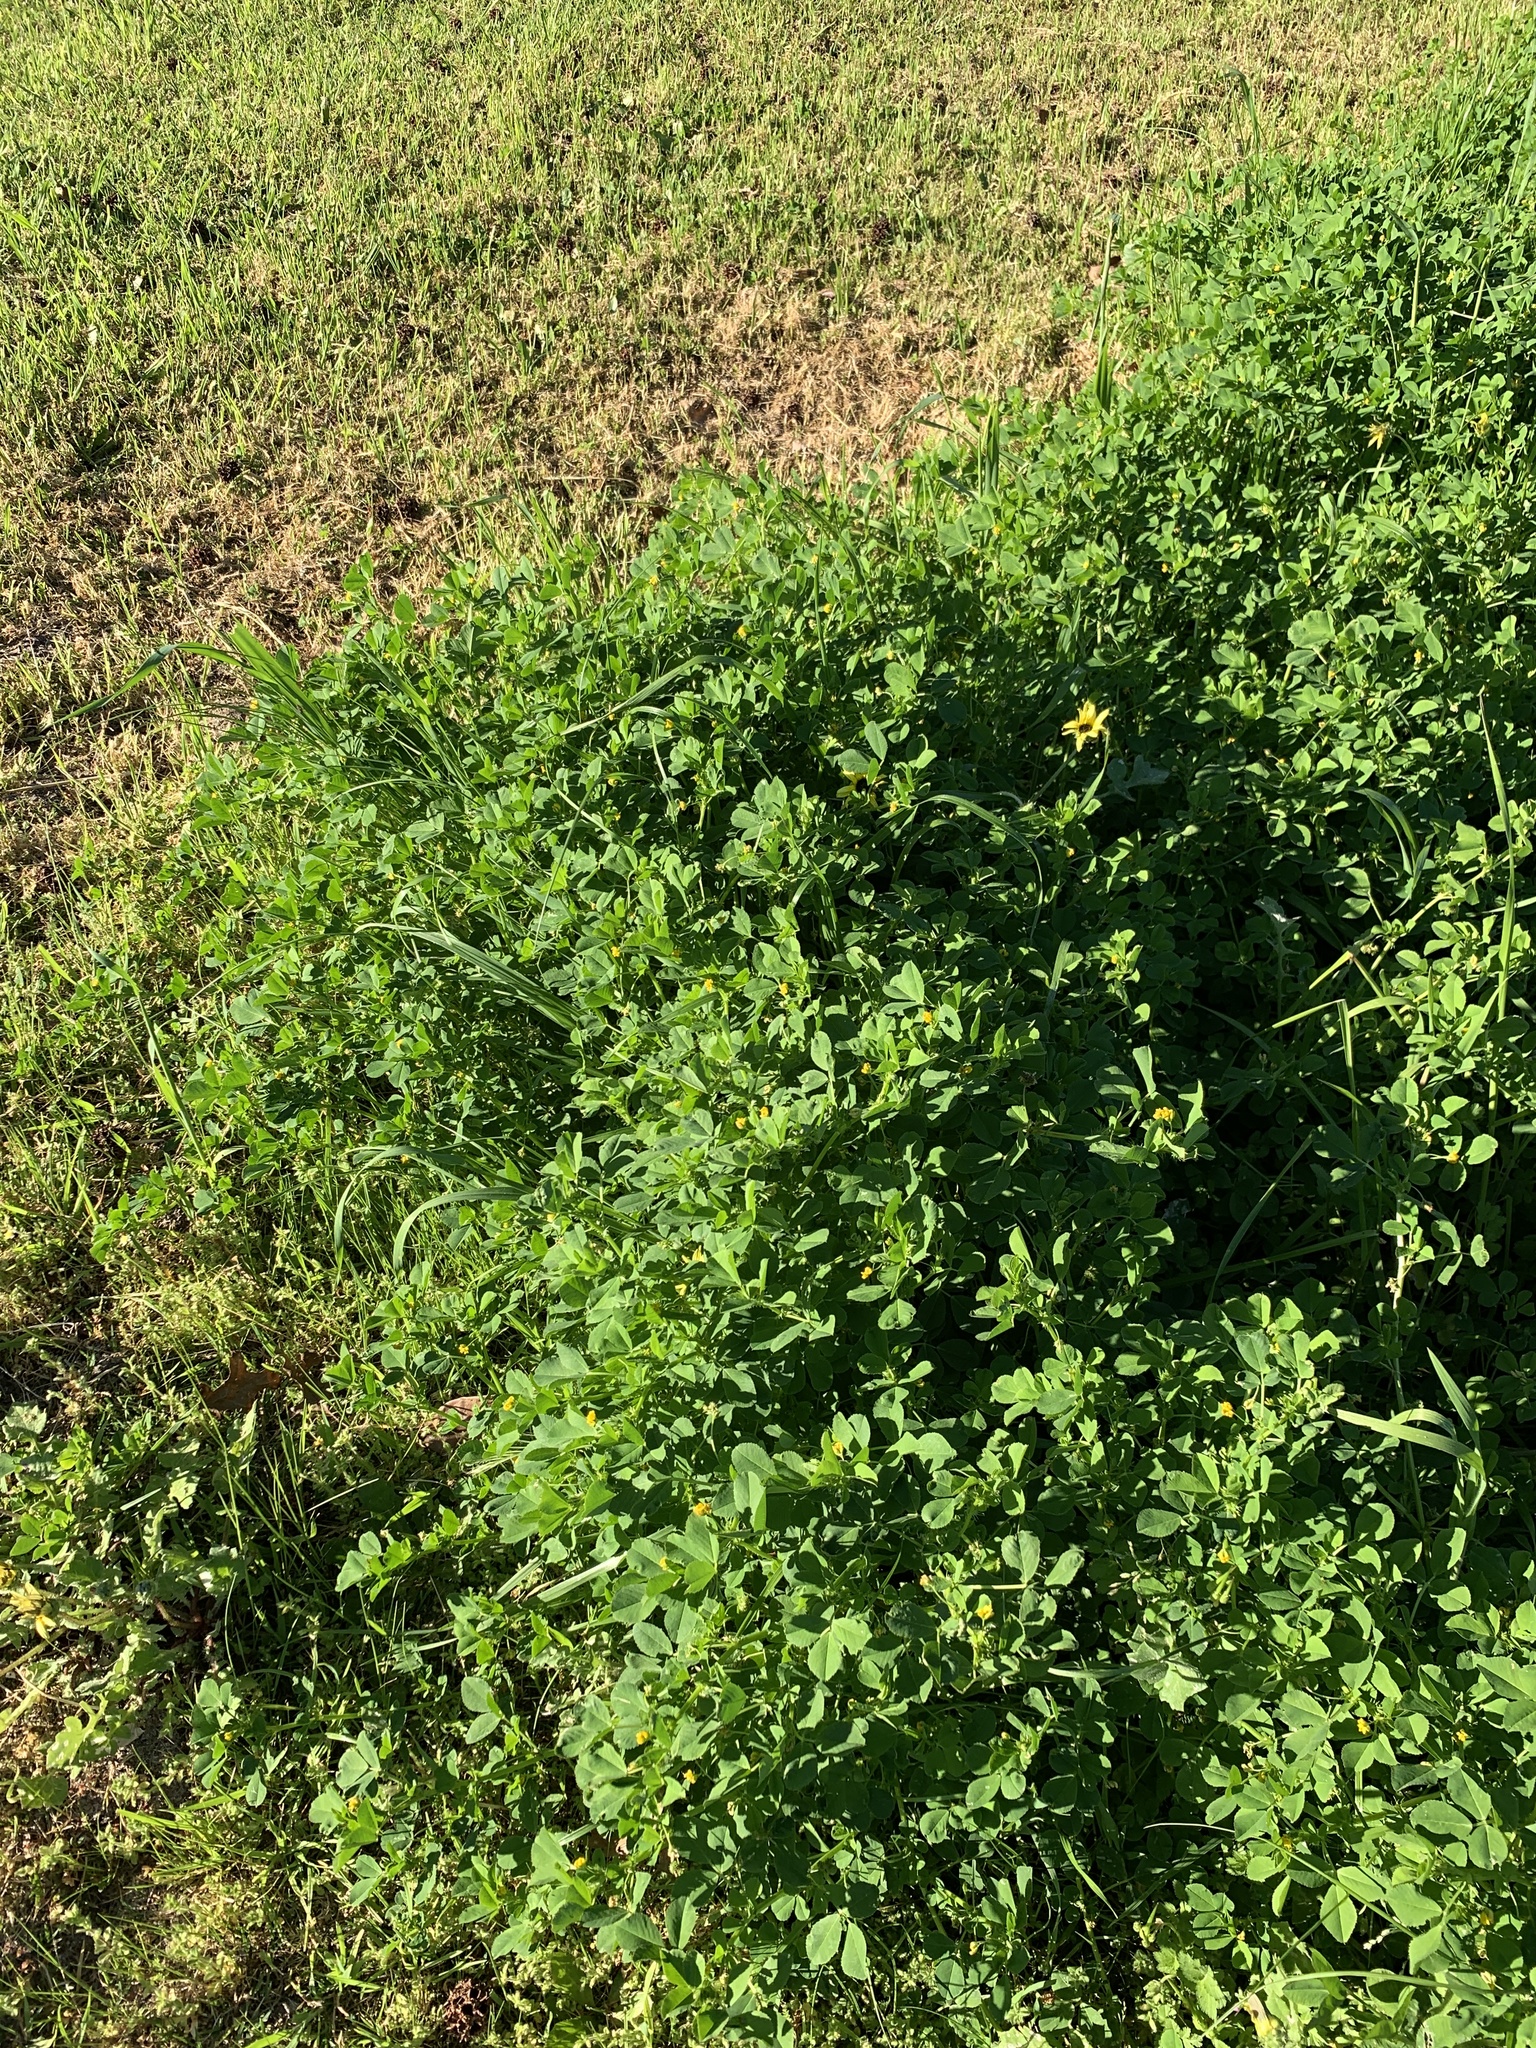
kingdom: Plantae
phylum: Tracheophyta
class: Magnoliopsida
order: Fabales
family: Fabaceae
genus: Medicago
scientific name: Medicago polymorpha
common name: Burclover
